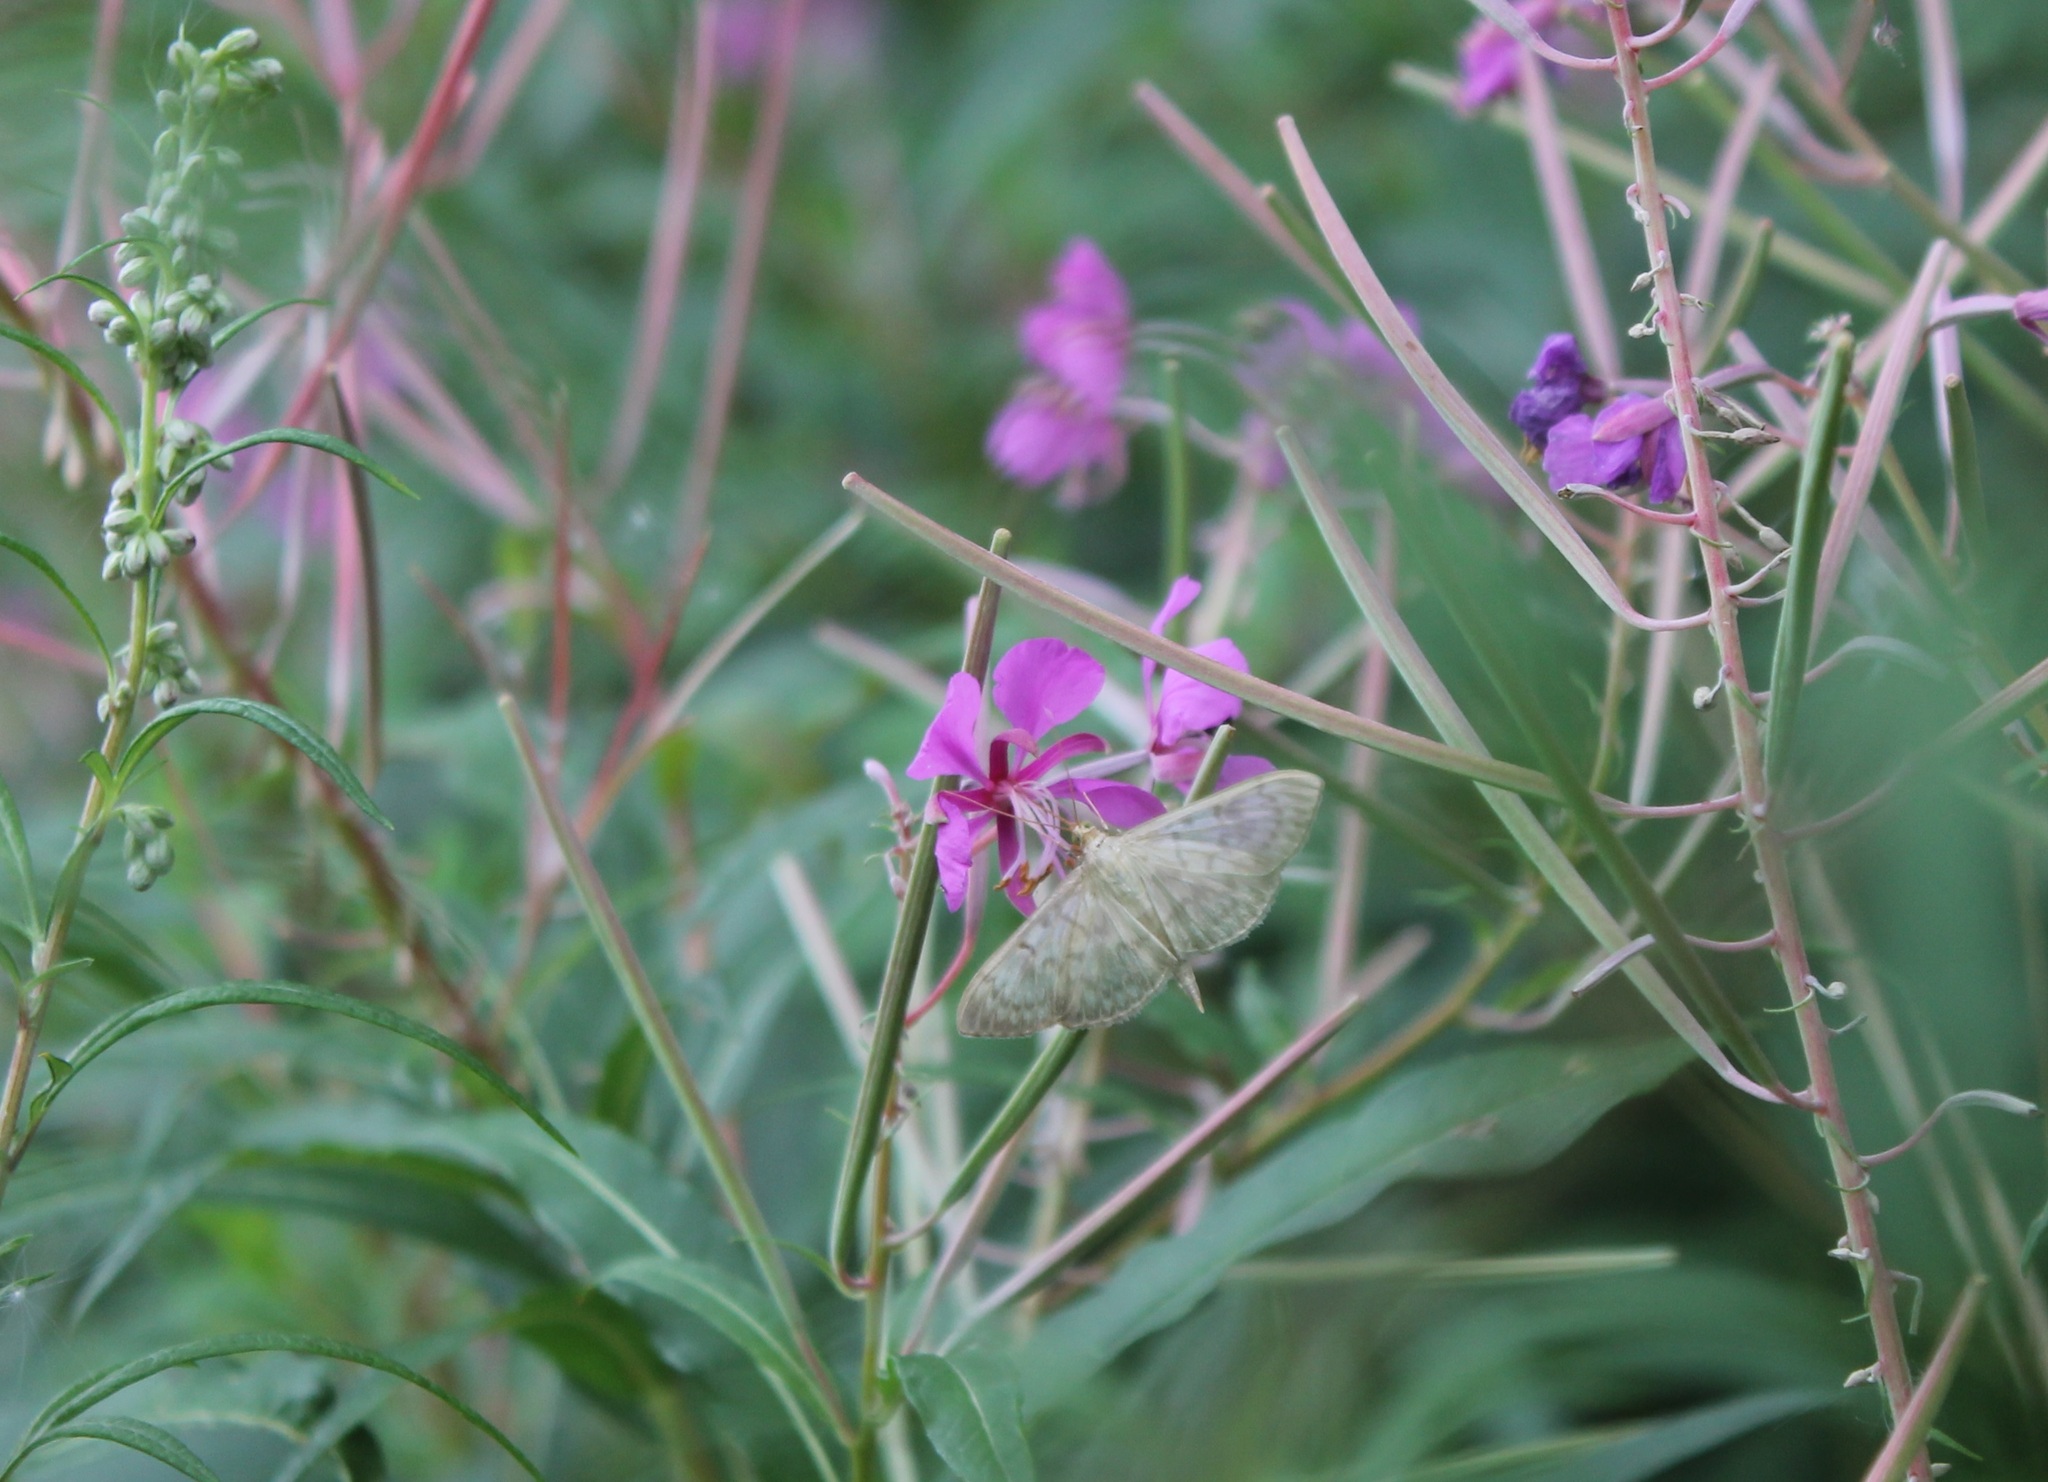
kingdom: Animalia
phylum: Arthropoda
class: Insecta
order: Lepidoptera
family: Crambidae
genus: Patania
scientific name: Patania ruralis
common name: Mother of pearl
